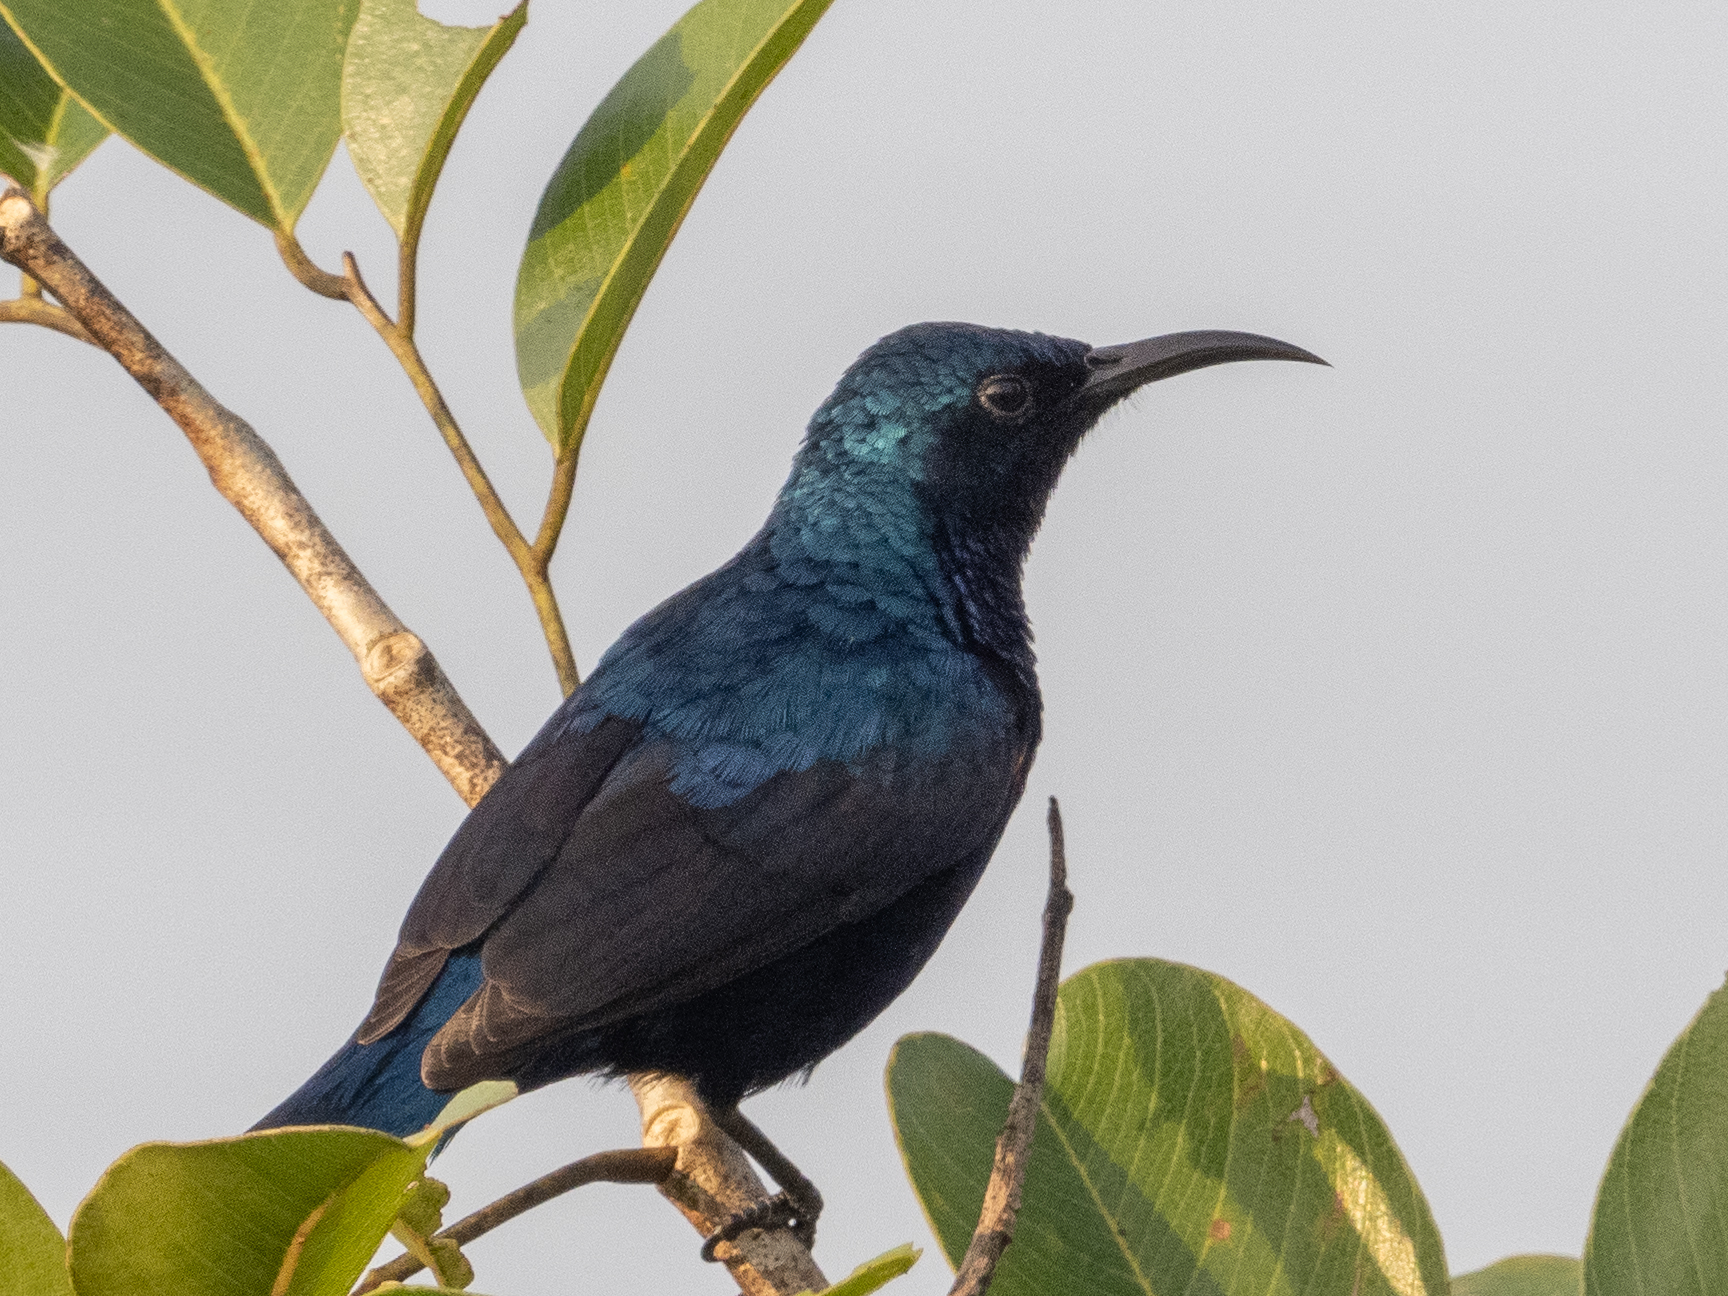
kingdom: Animalia
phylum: Chordata
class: Aves
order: Passeriformes
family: Nectariniidae
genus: Cinnyris
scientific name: Cinnyris asiaticus
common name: Purple sunbird
